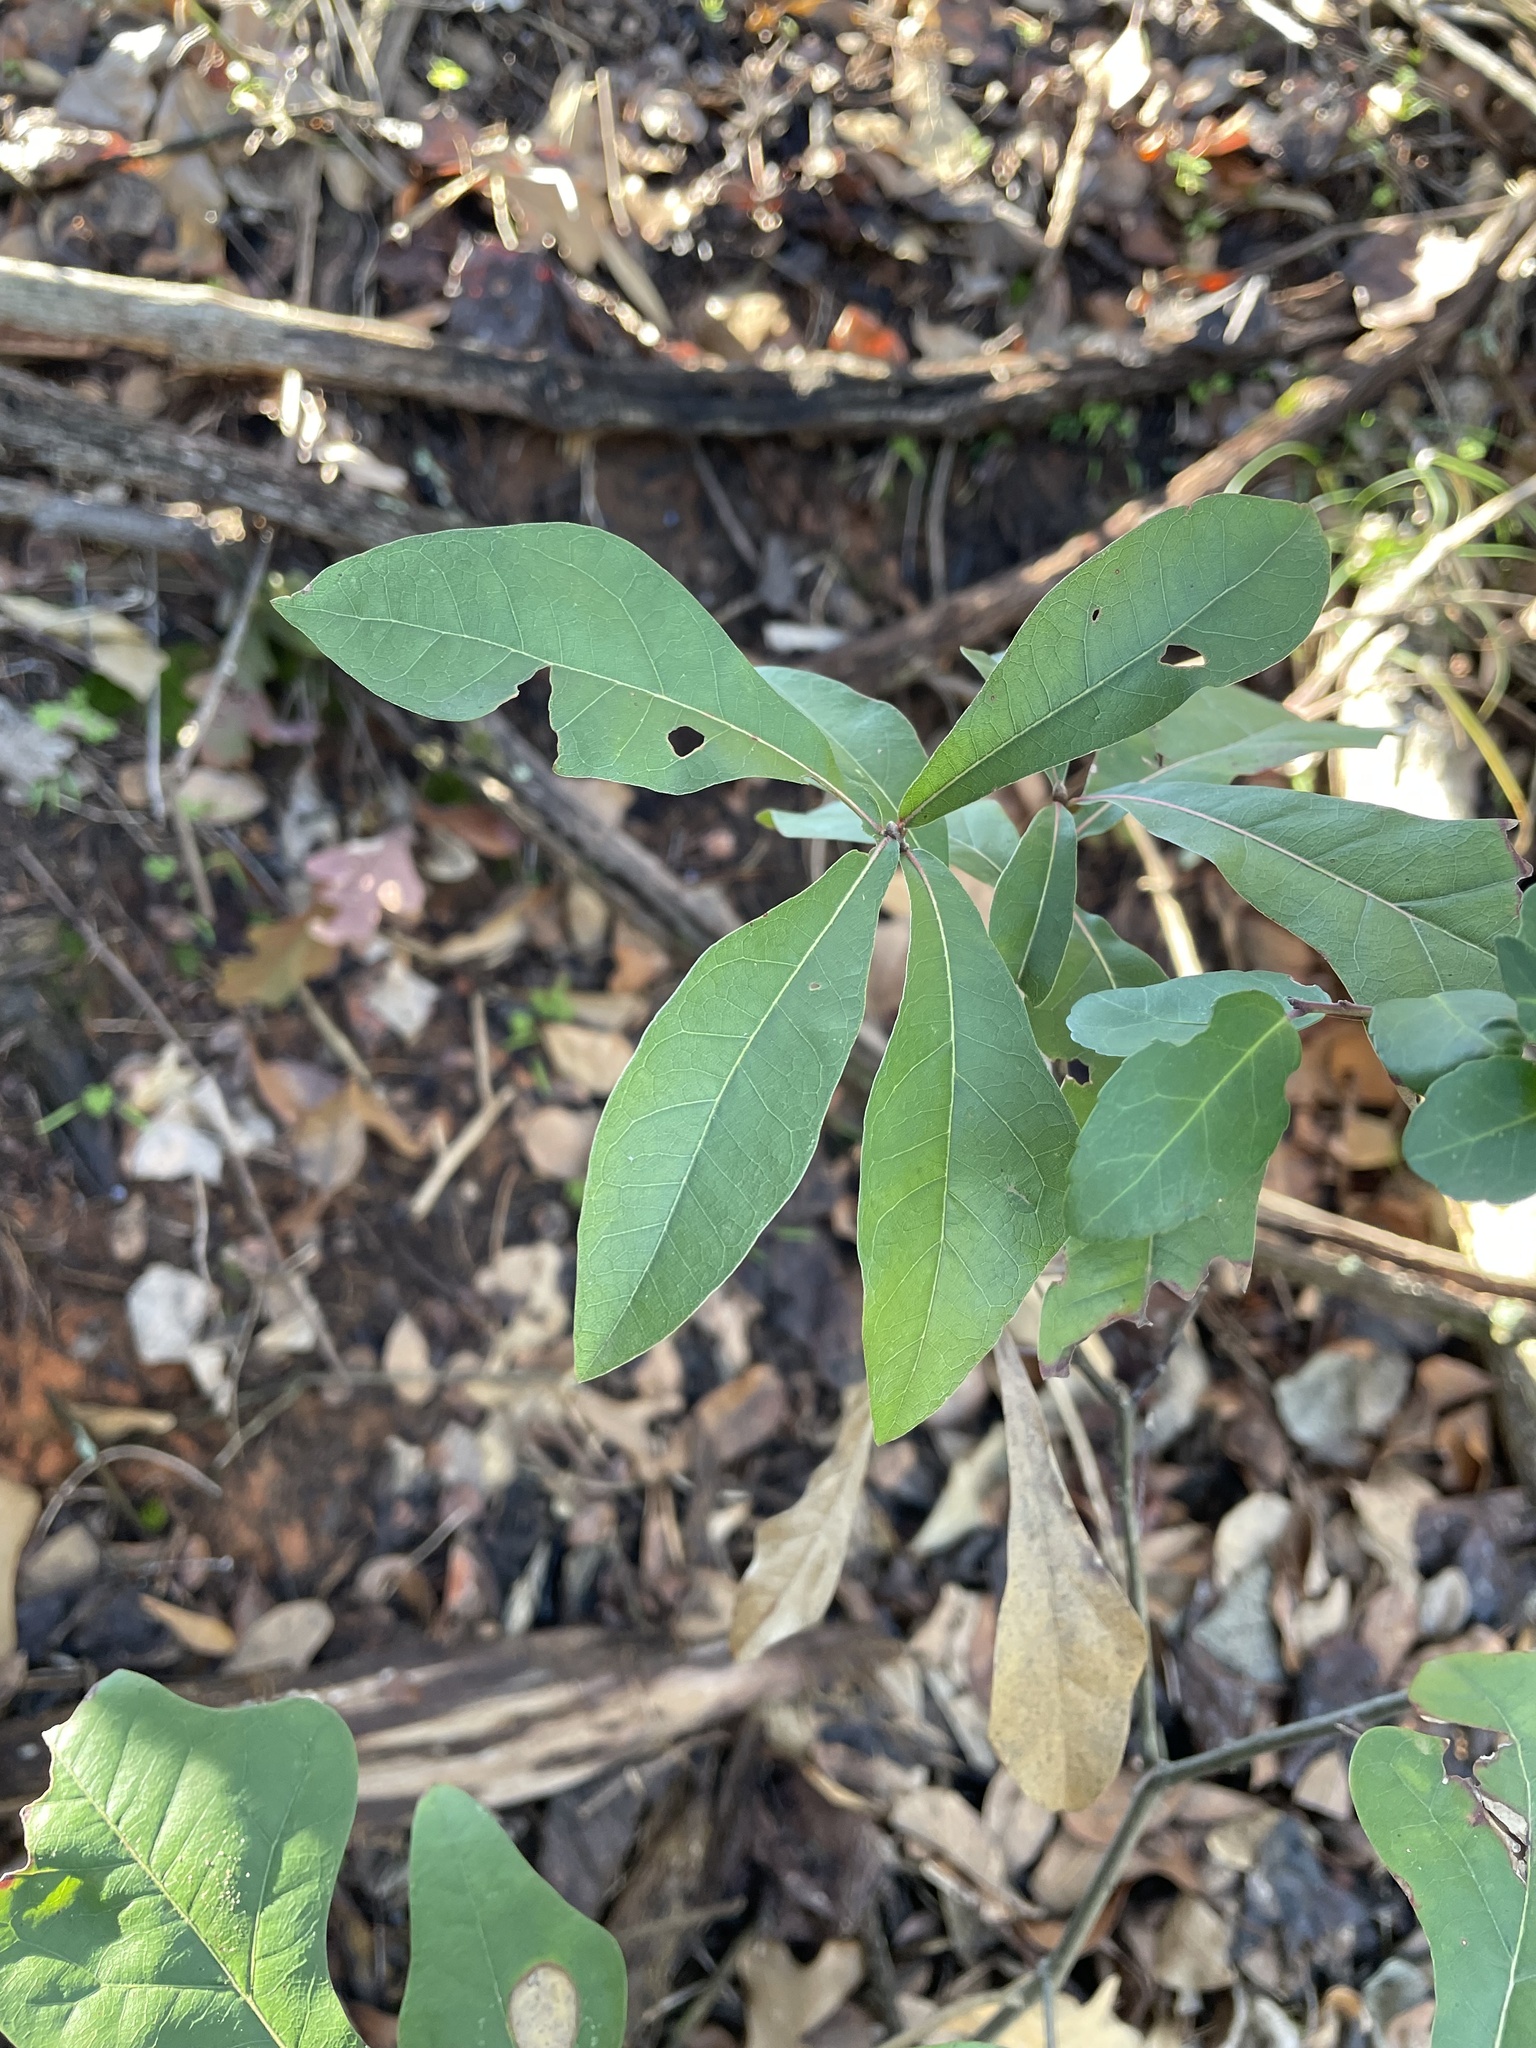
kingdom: Plantae
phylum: Tracheophyta
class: Magnoliopsida
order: Fagales
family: Fagaceae
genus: Quercus
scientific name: Quercus nigra
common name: Water oak
